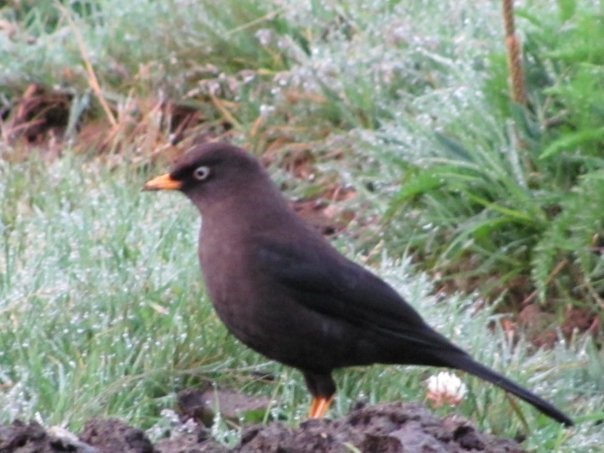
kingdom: Animalia
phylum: Chordata
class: Aves
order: Passeriformes
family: Turdidae
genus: Turdus
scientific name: Turdus nigrescens
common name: Sooty thrush
